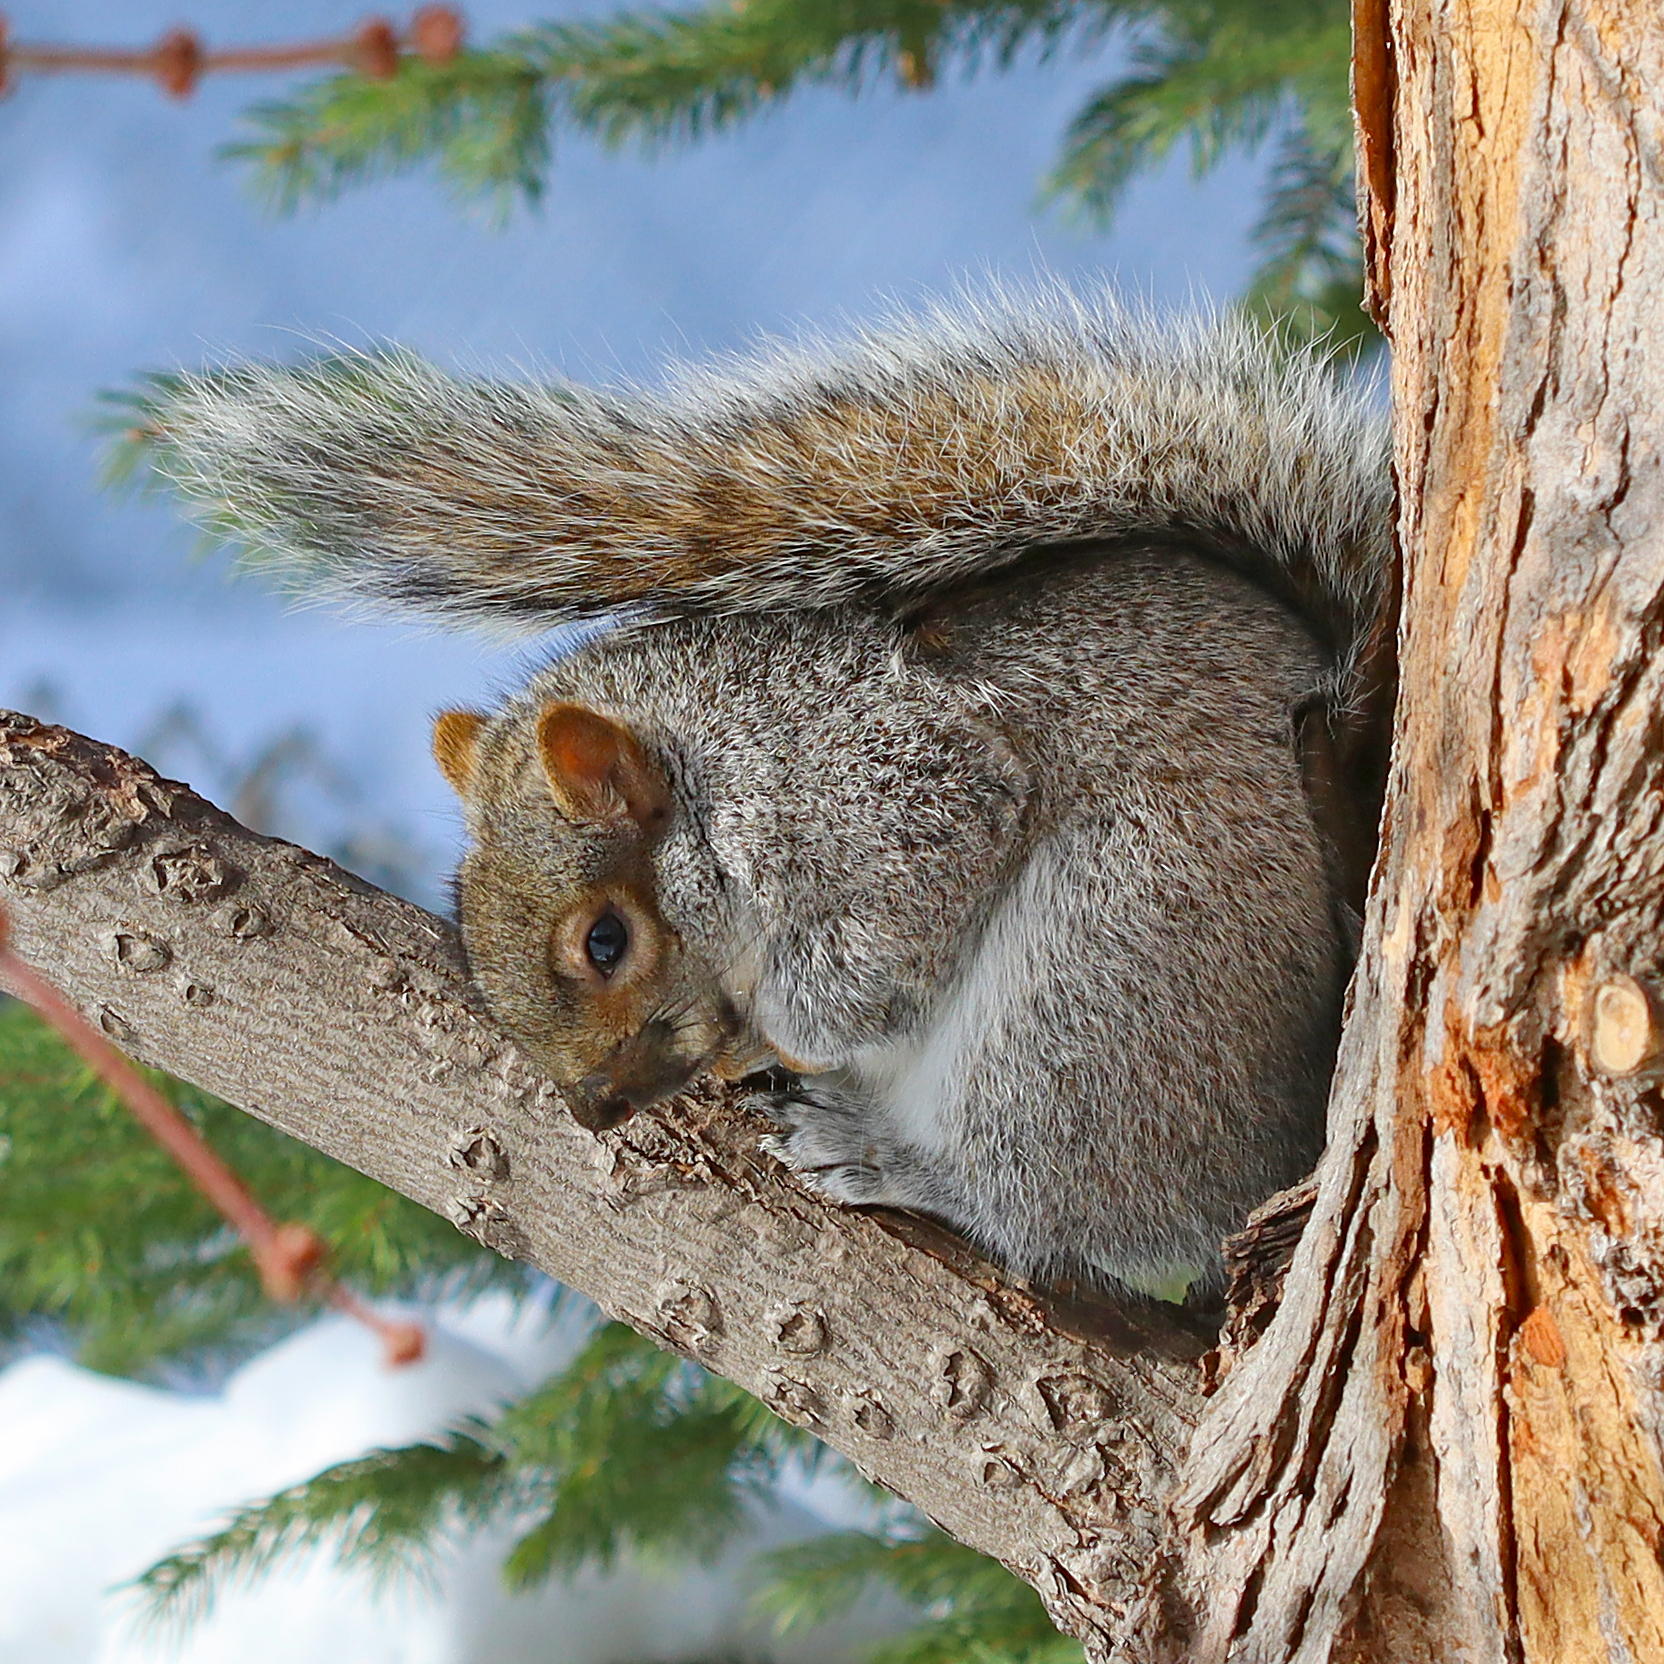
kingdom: Animalia
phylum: Chordata
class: Mammalia
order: Rodentia
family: Sciuridae
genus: Sciurus
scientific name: Sciurus carolinensis
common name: Eastern gray squirrel
